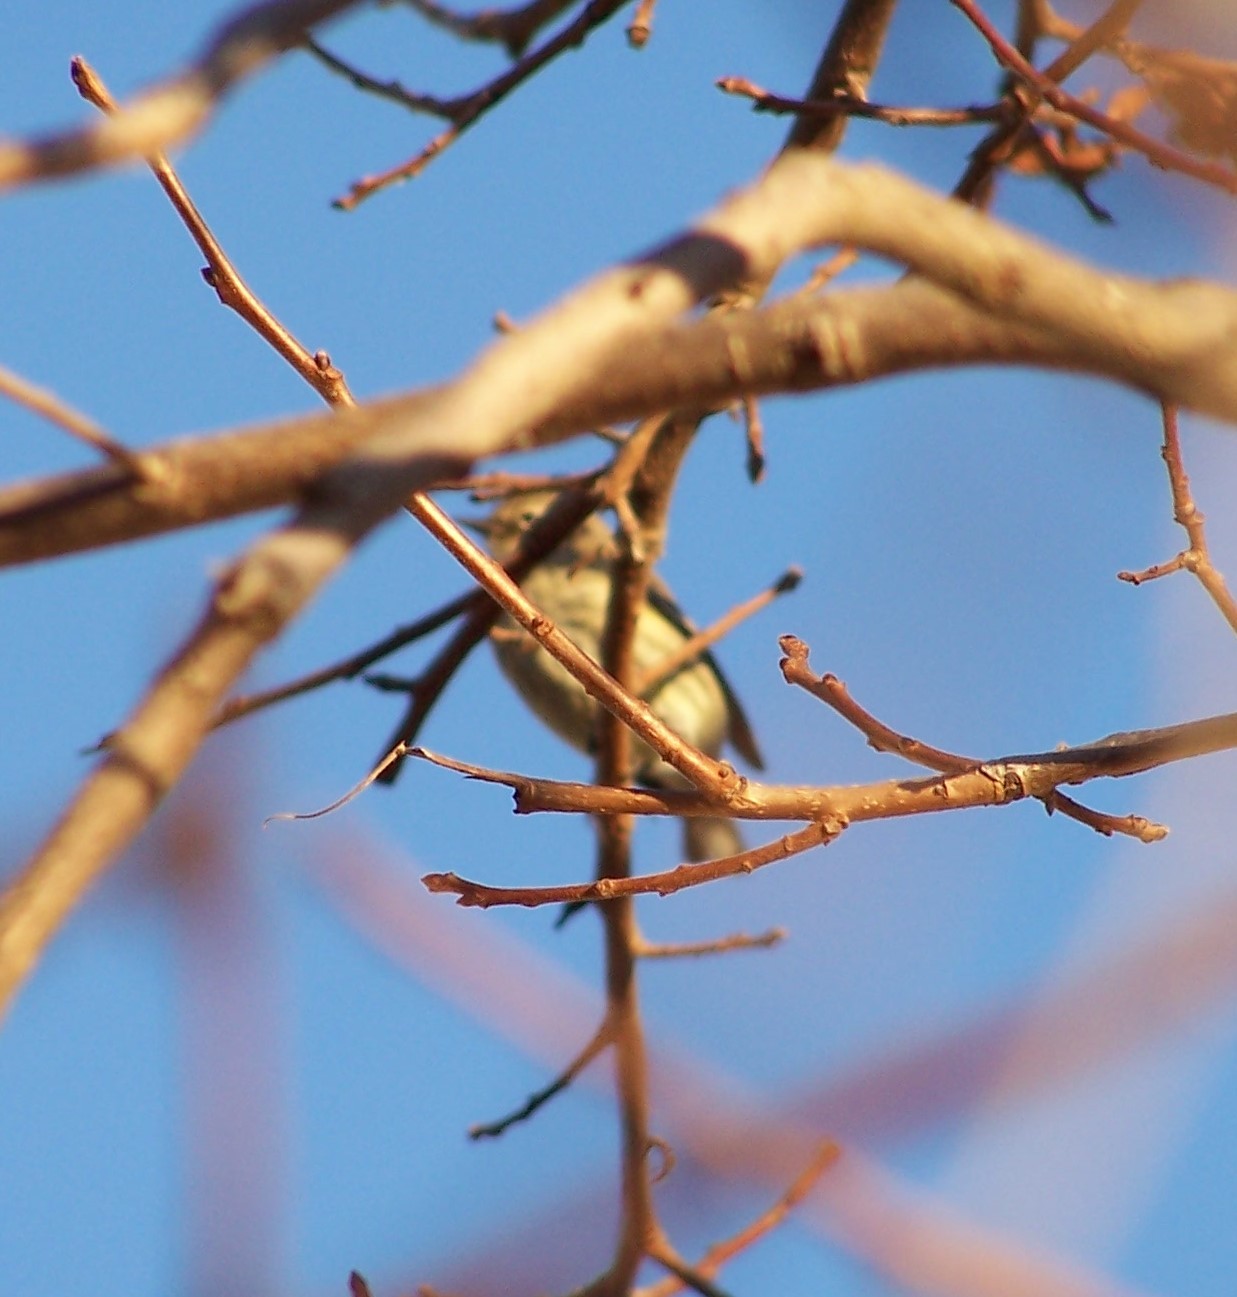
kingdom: Animalia
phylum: Chordata
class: Aves
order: Passeriformes
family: Parulidae
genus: Setophaga
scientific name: Setophaga coronata
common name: Myrtle warbler
